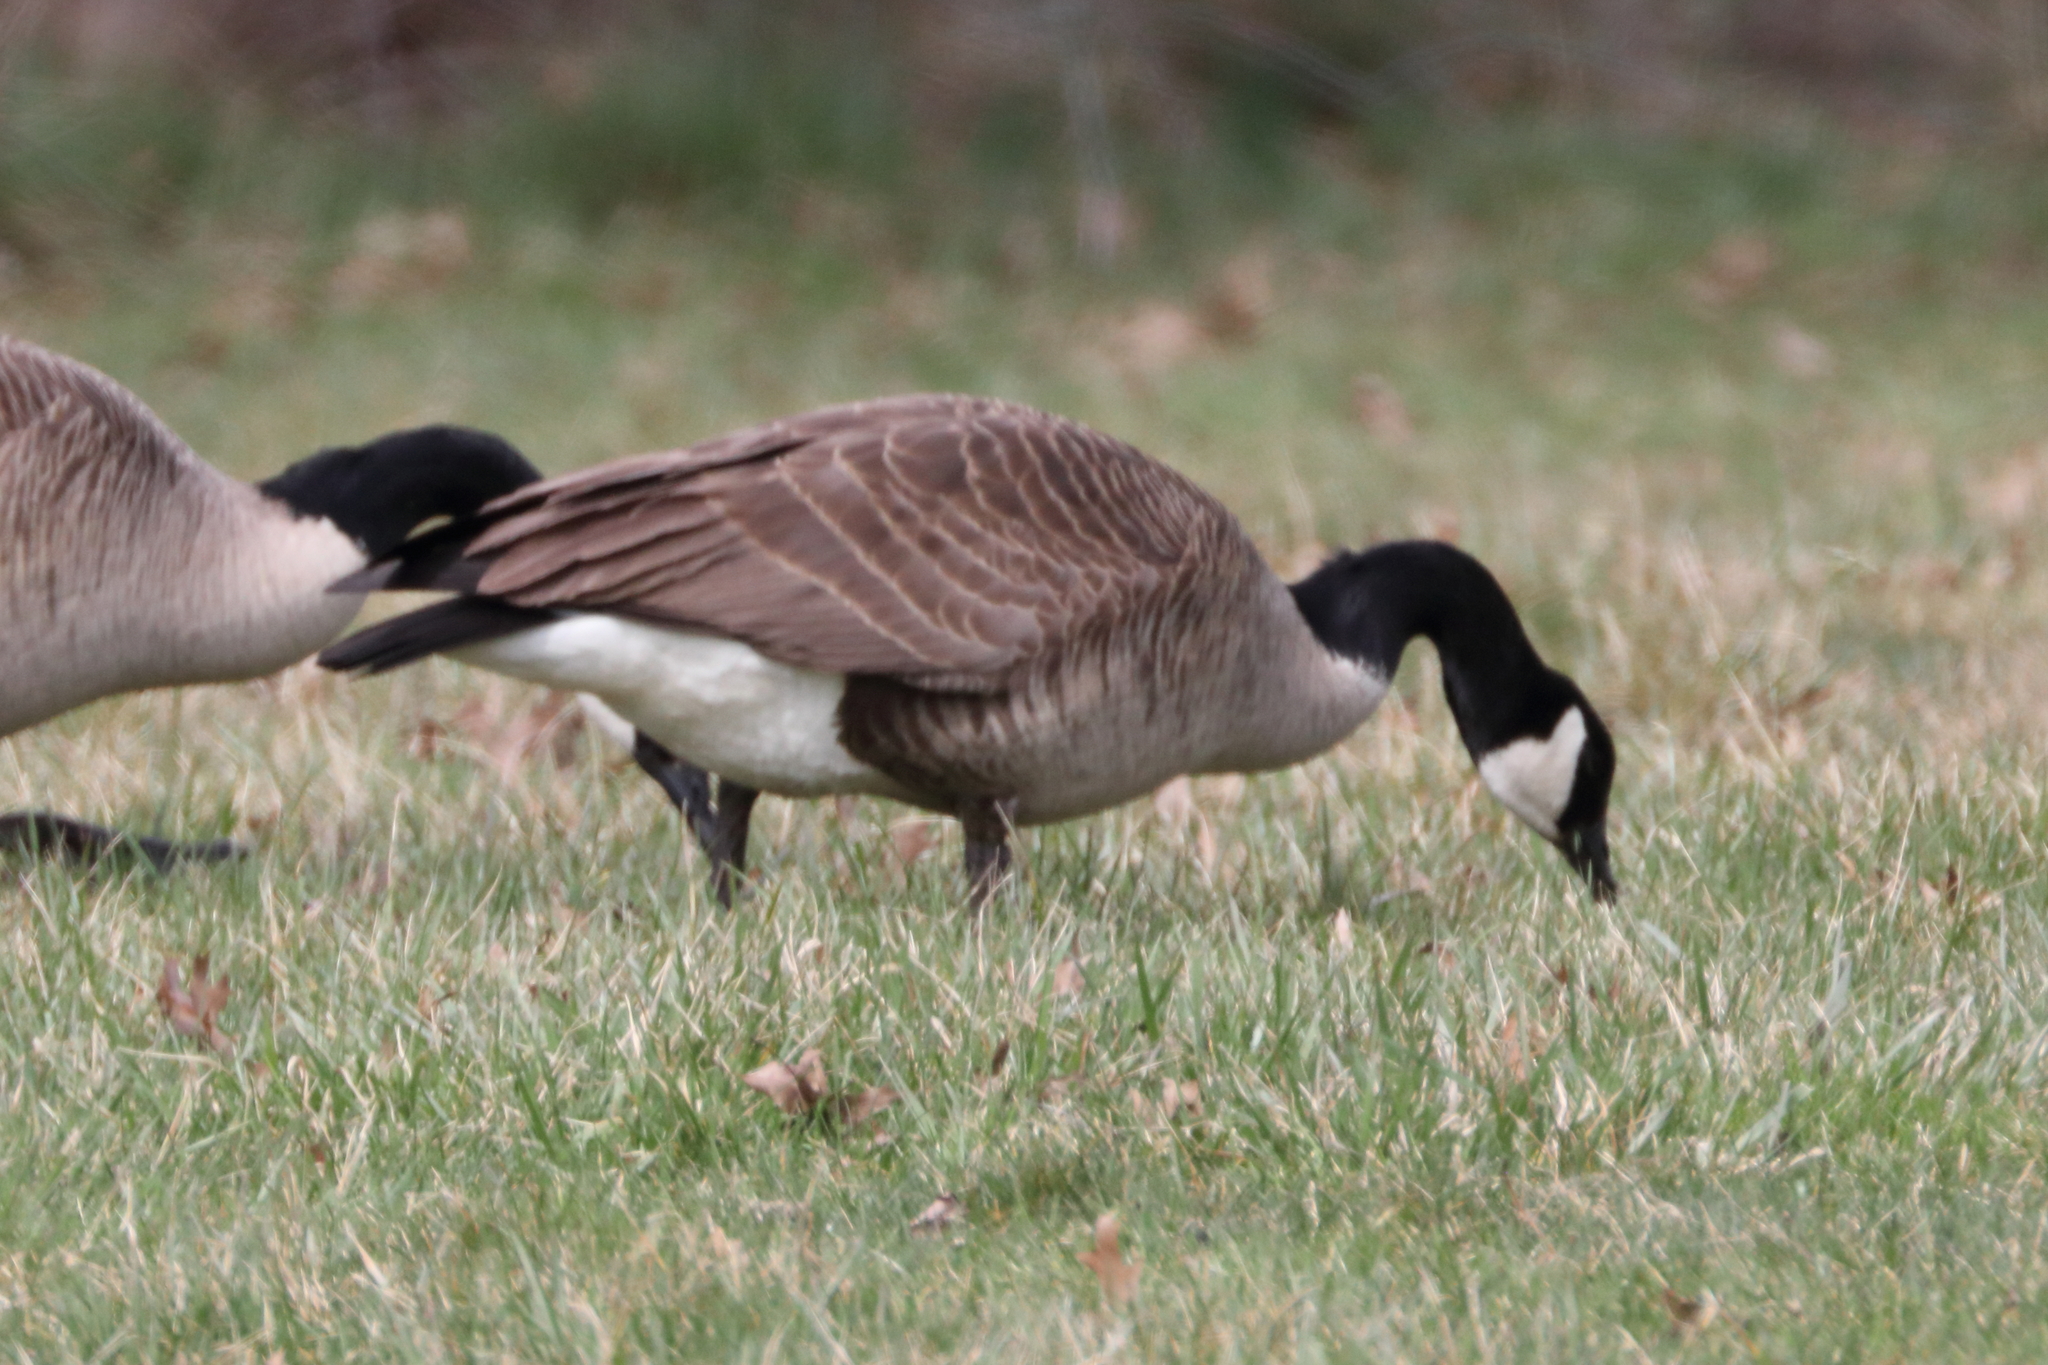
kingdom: Animalia
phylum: Chordata
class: Aves
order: Anseriformes
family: Anatidae
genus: Branta
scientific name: Branta canadensis
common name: Canada goose
